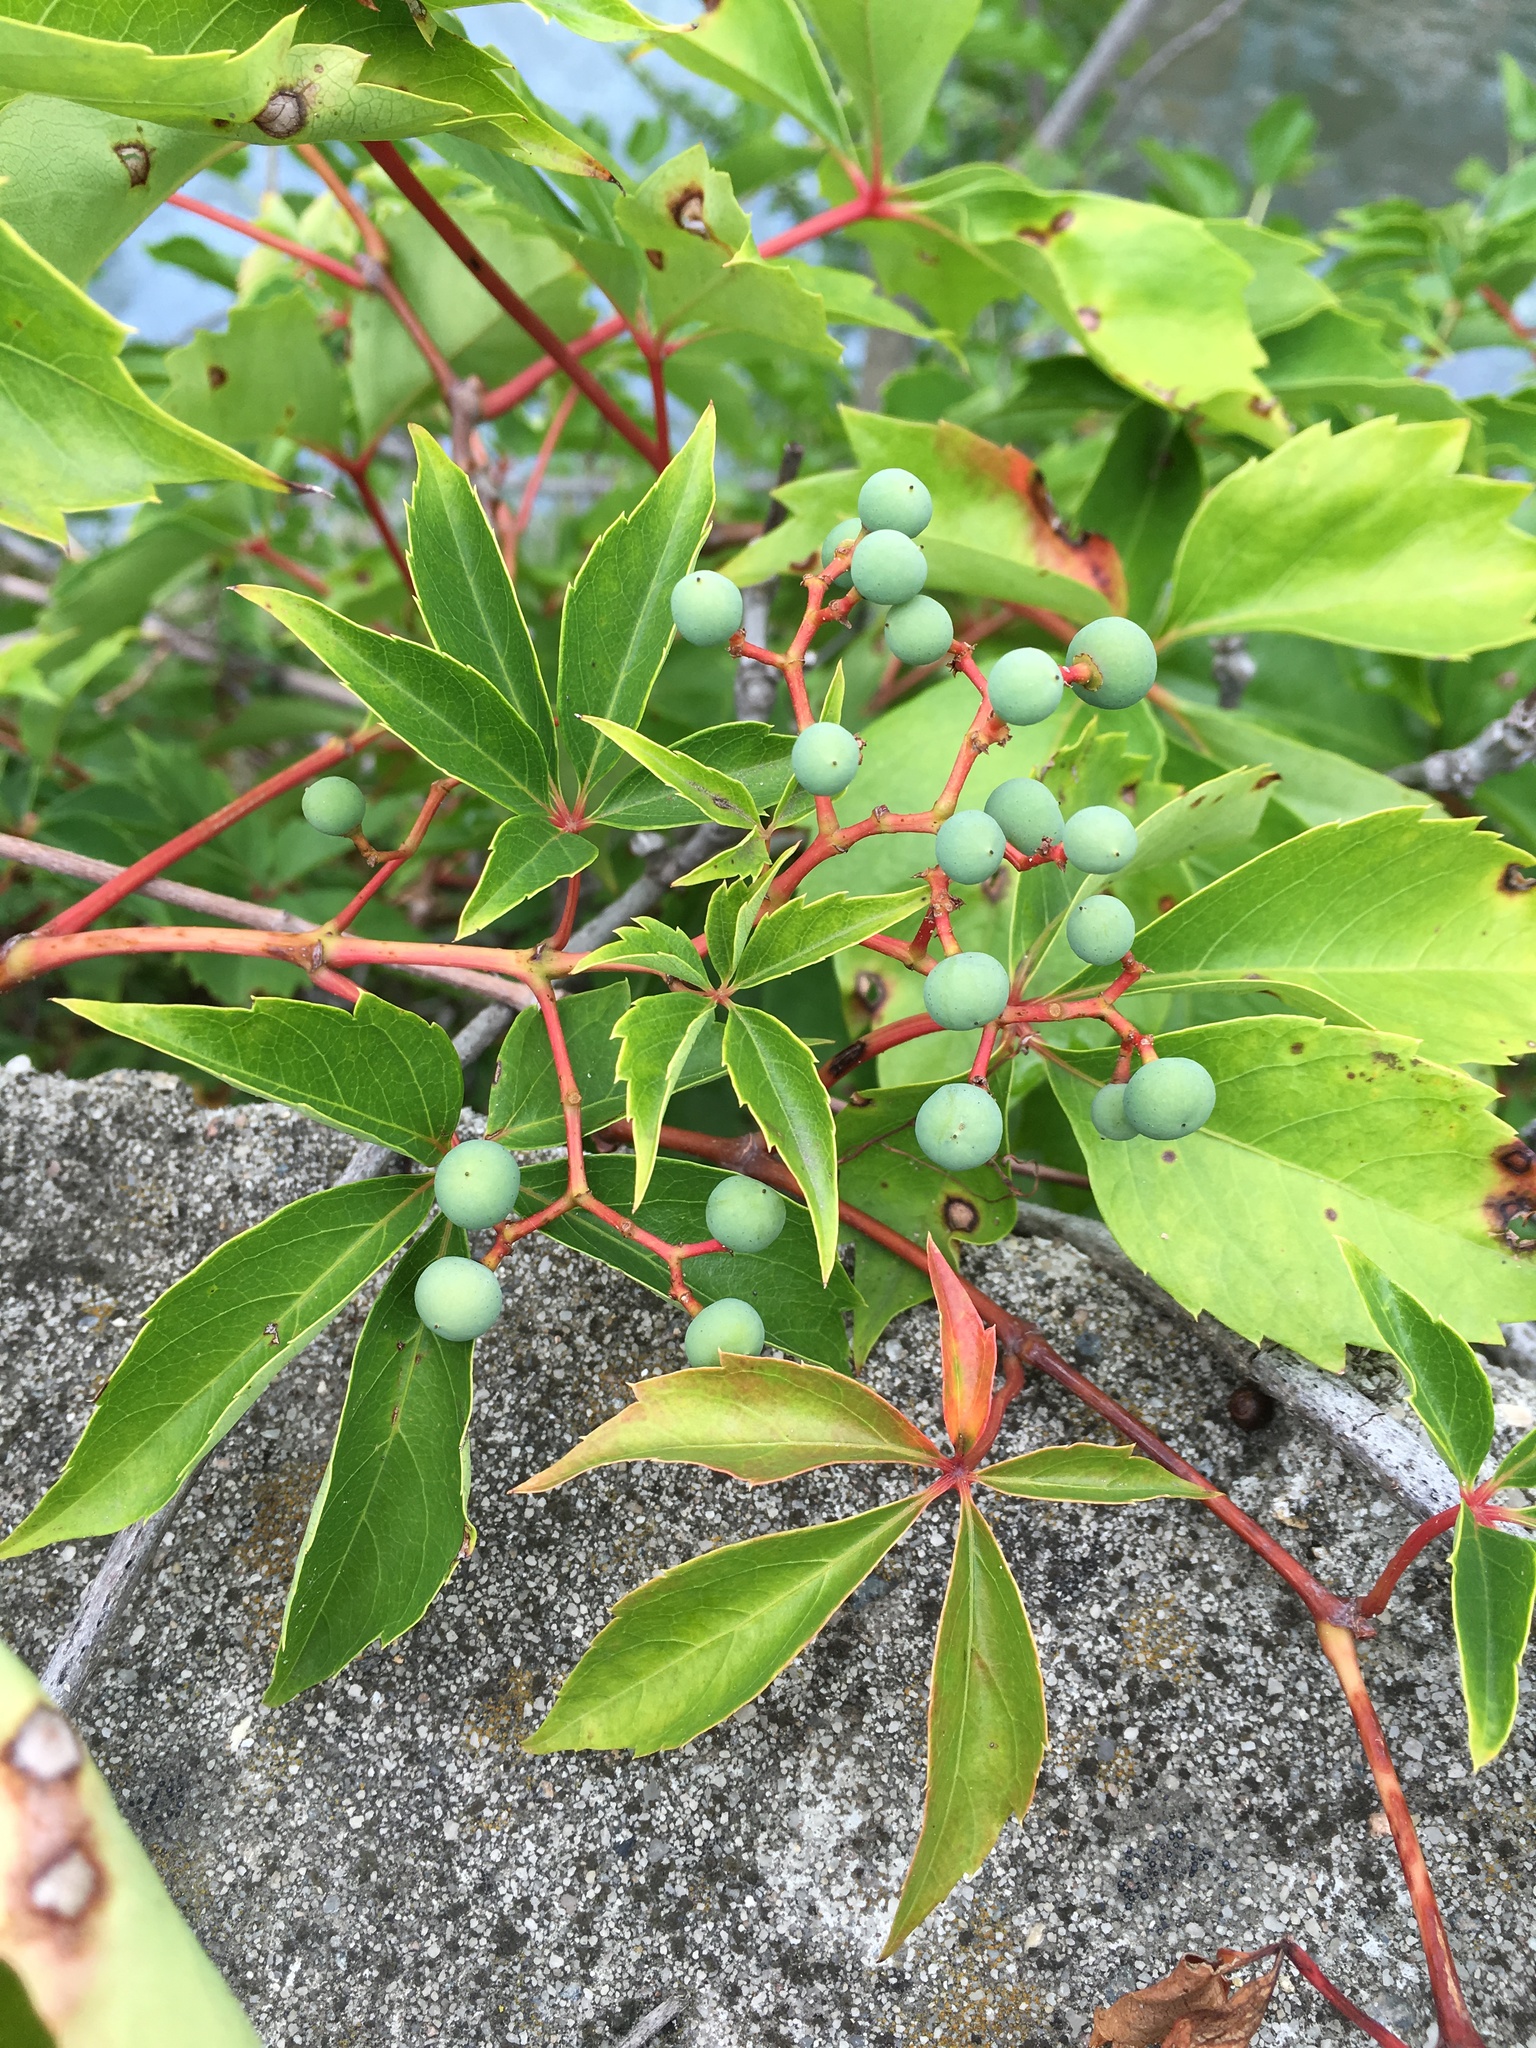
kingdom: Plantae
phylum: Tracheophyta
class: Magnoliopsida
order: Vitales
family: Vitaceae
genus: Parthenocissus
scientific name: Parthenocissus quinquefolia
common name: Virginia-creeper
